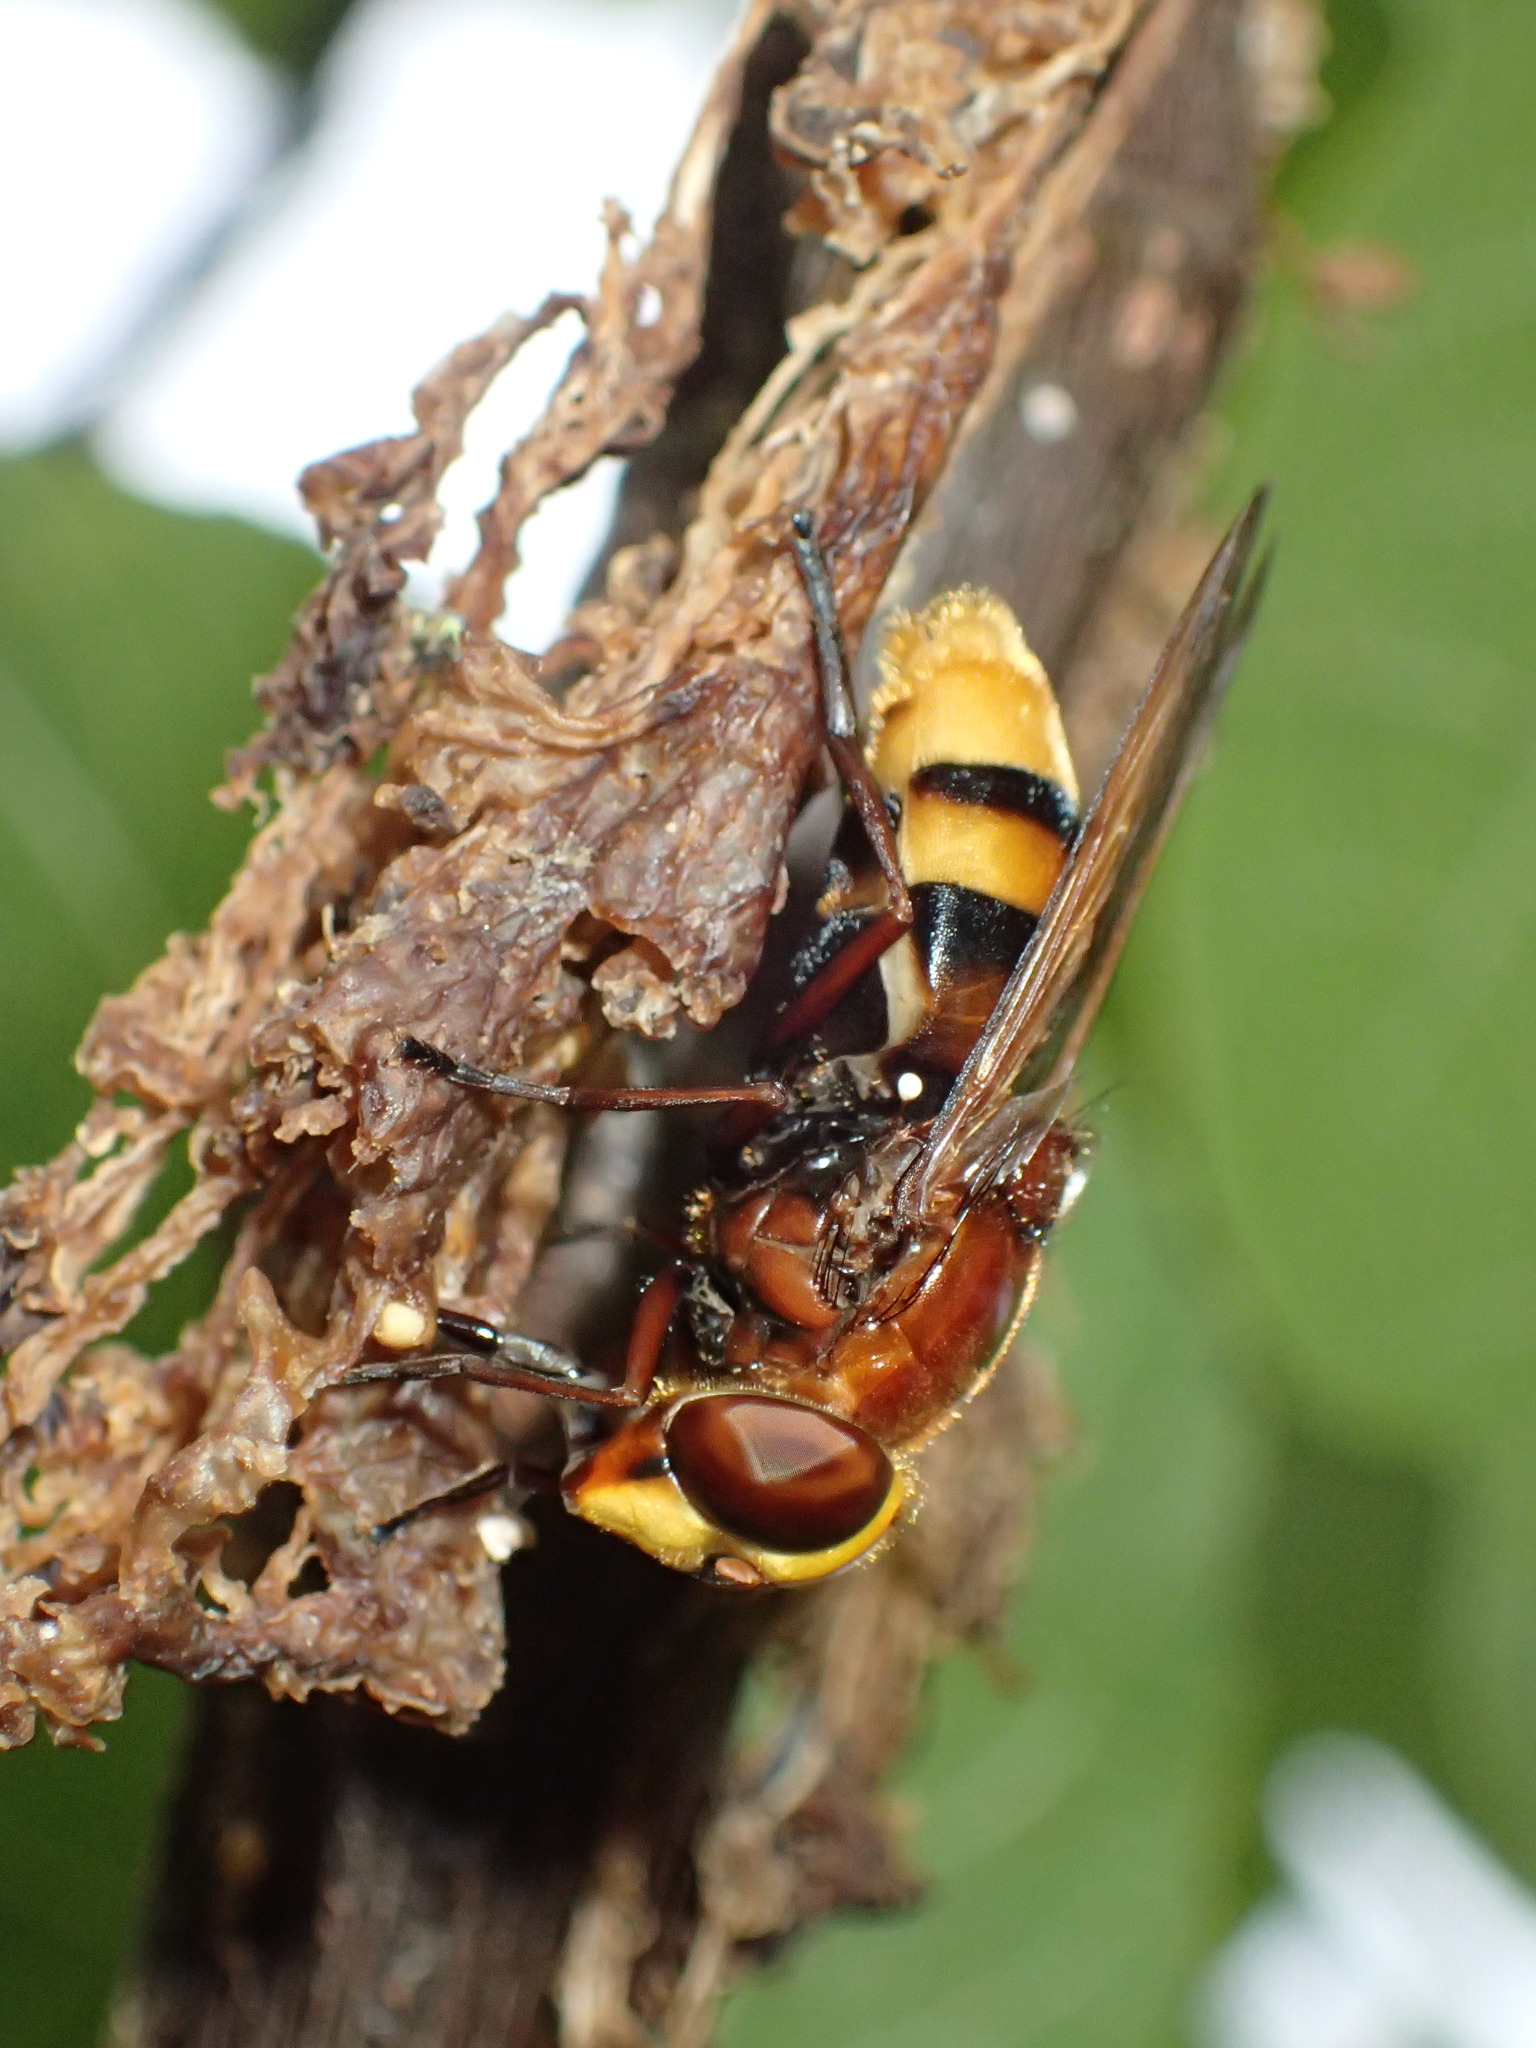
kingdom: Animalia
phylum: Arthropoda
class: Insecta
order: Diptera
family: Syrphidae
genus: Volucella
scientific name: Volucella zonaria
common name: Hornet hoverfly
